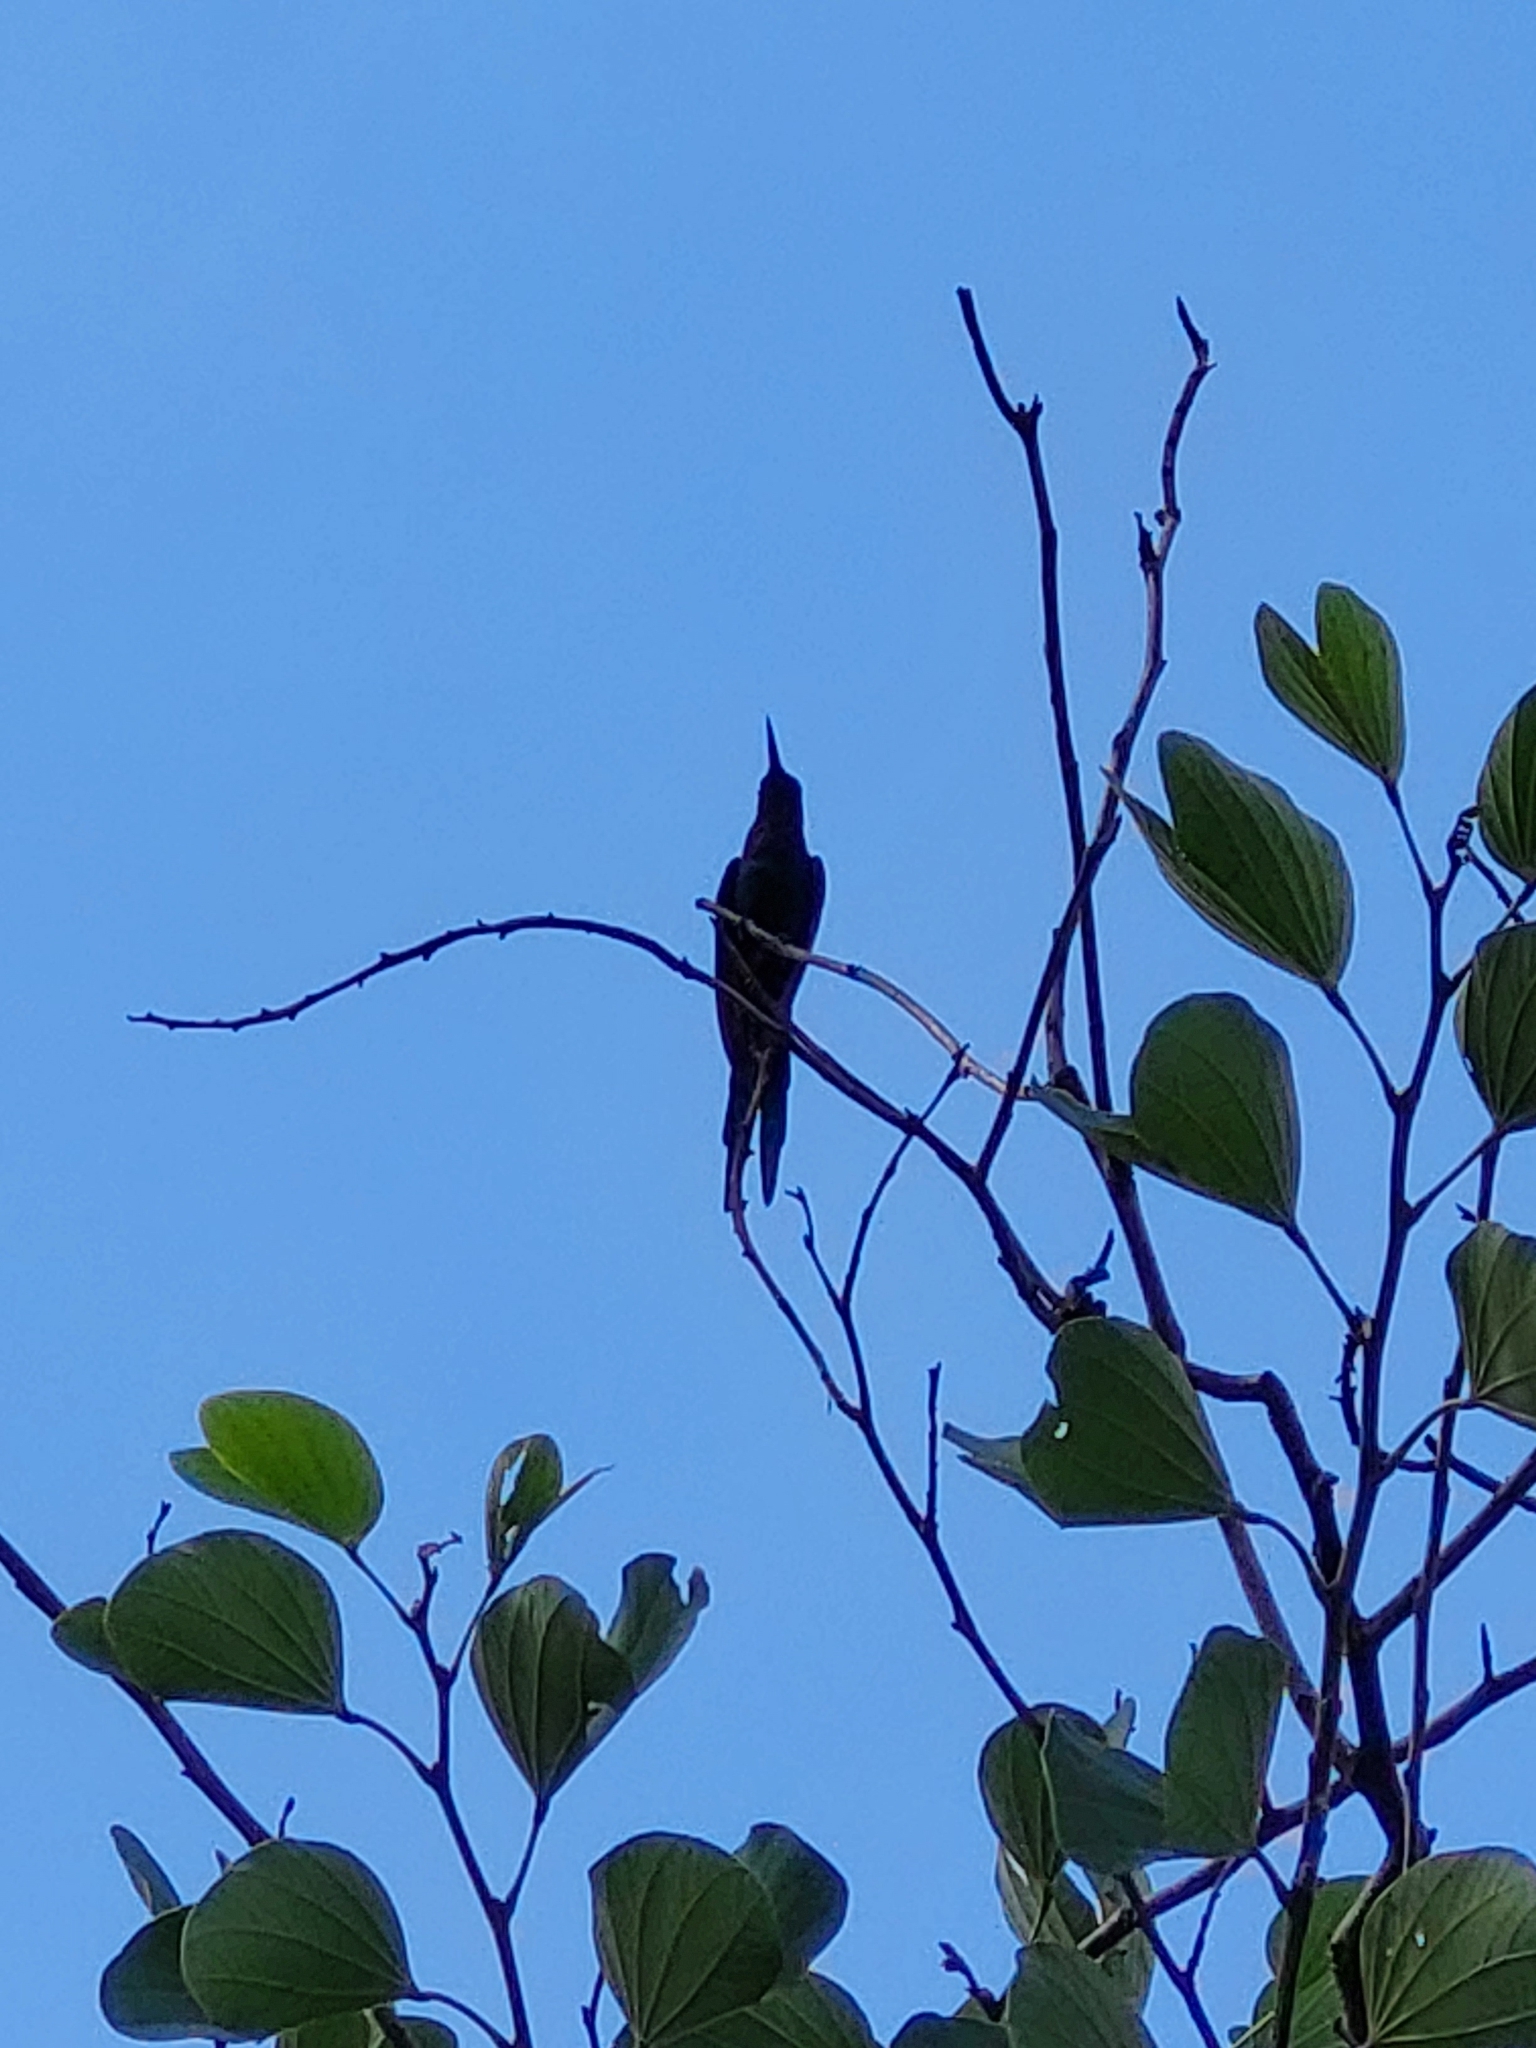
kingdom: Animalia
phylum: Chordata
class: Aves
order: Apodiformes
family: Trochilidae
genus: Eupetomena
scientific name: Eupetomena macroura
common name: Swallow-tailed hummingbird
